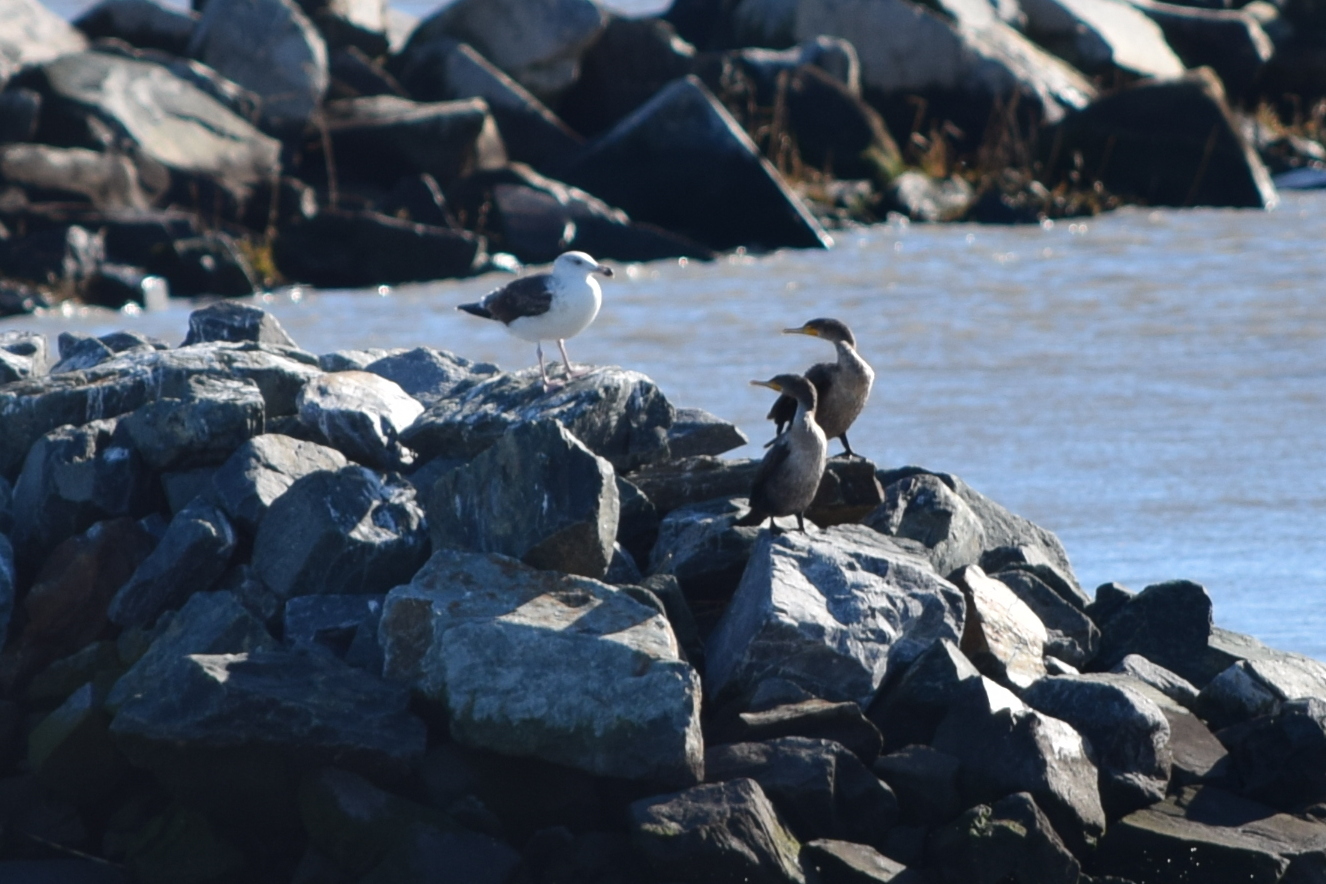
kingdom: Animalia
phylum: Chordata
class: Aves
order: Suliformes
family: Phalacrocoracidae
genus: Phalacrocorax
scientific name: Phalacrocorax auritus
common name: Double-crested cormorant
